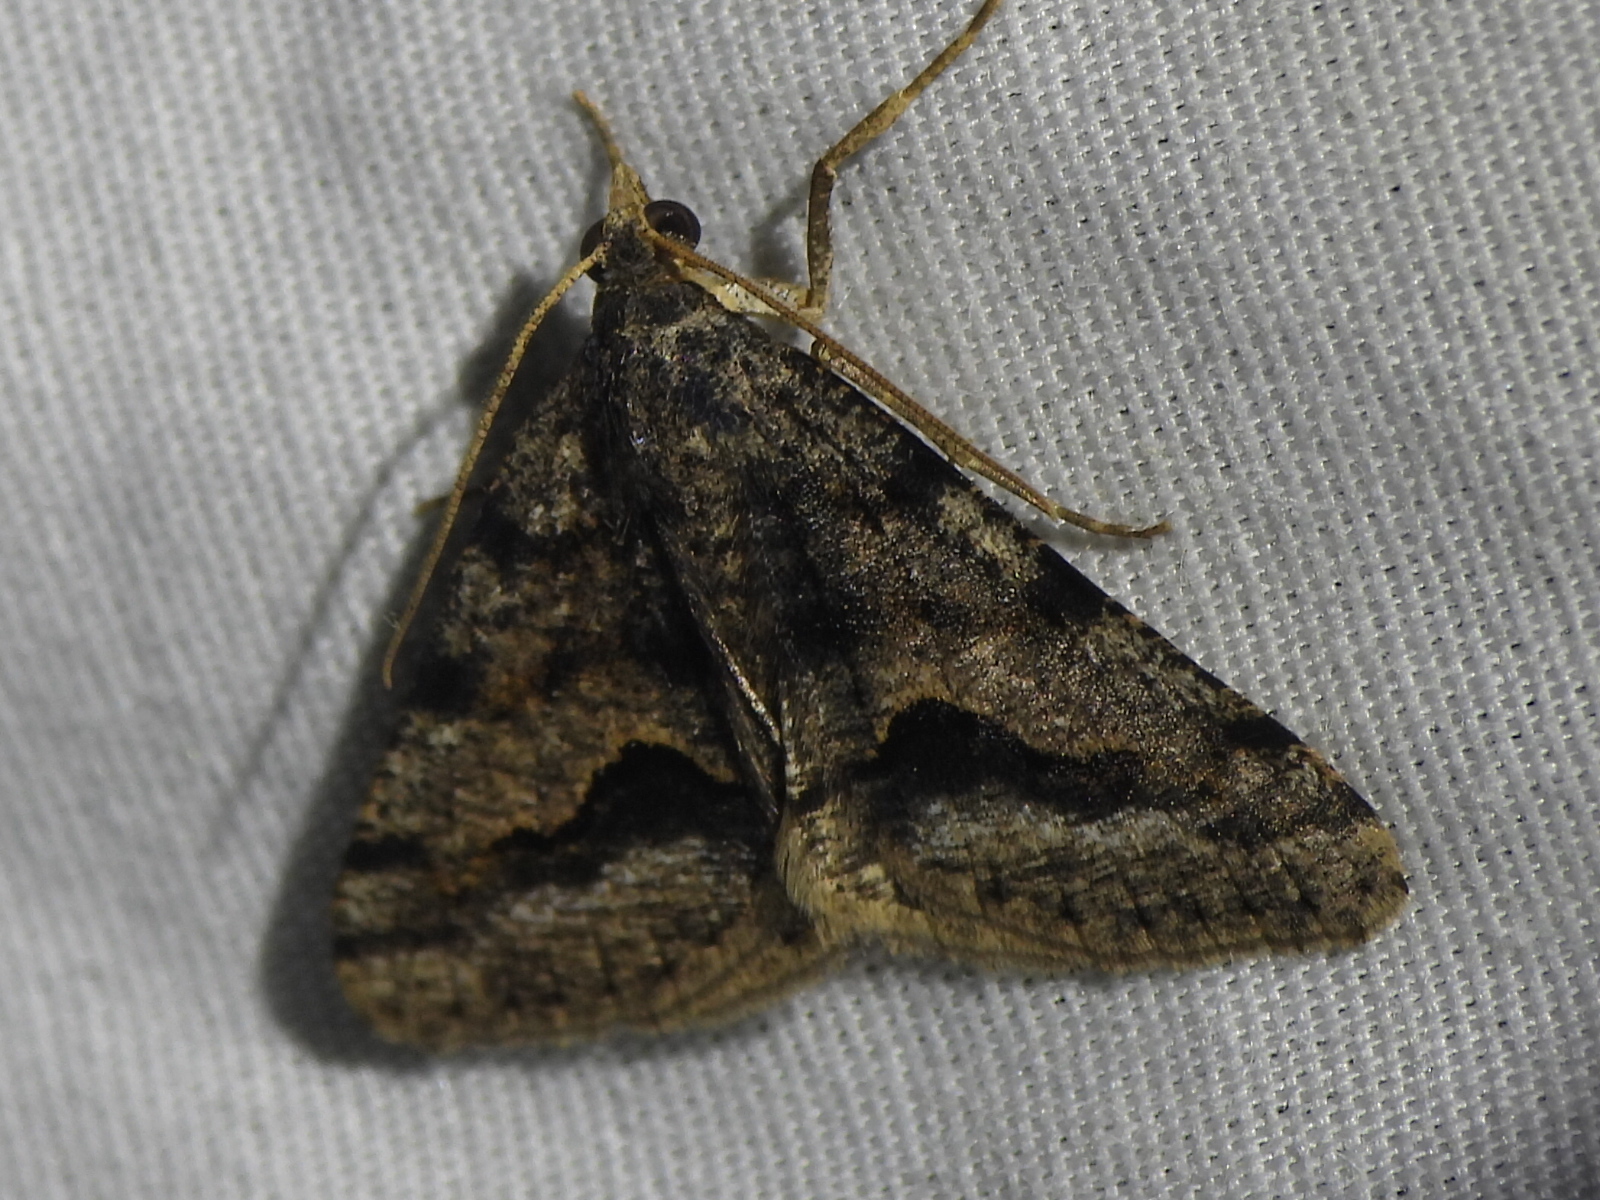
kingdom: Animalia
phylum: Arthropoda
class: Insecta
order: Lepidoptera
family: Geometridae
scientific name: Geometridae
